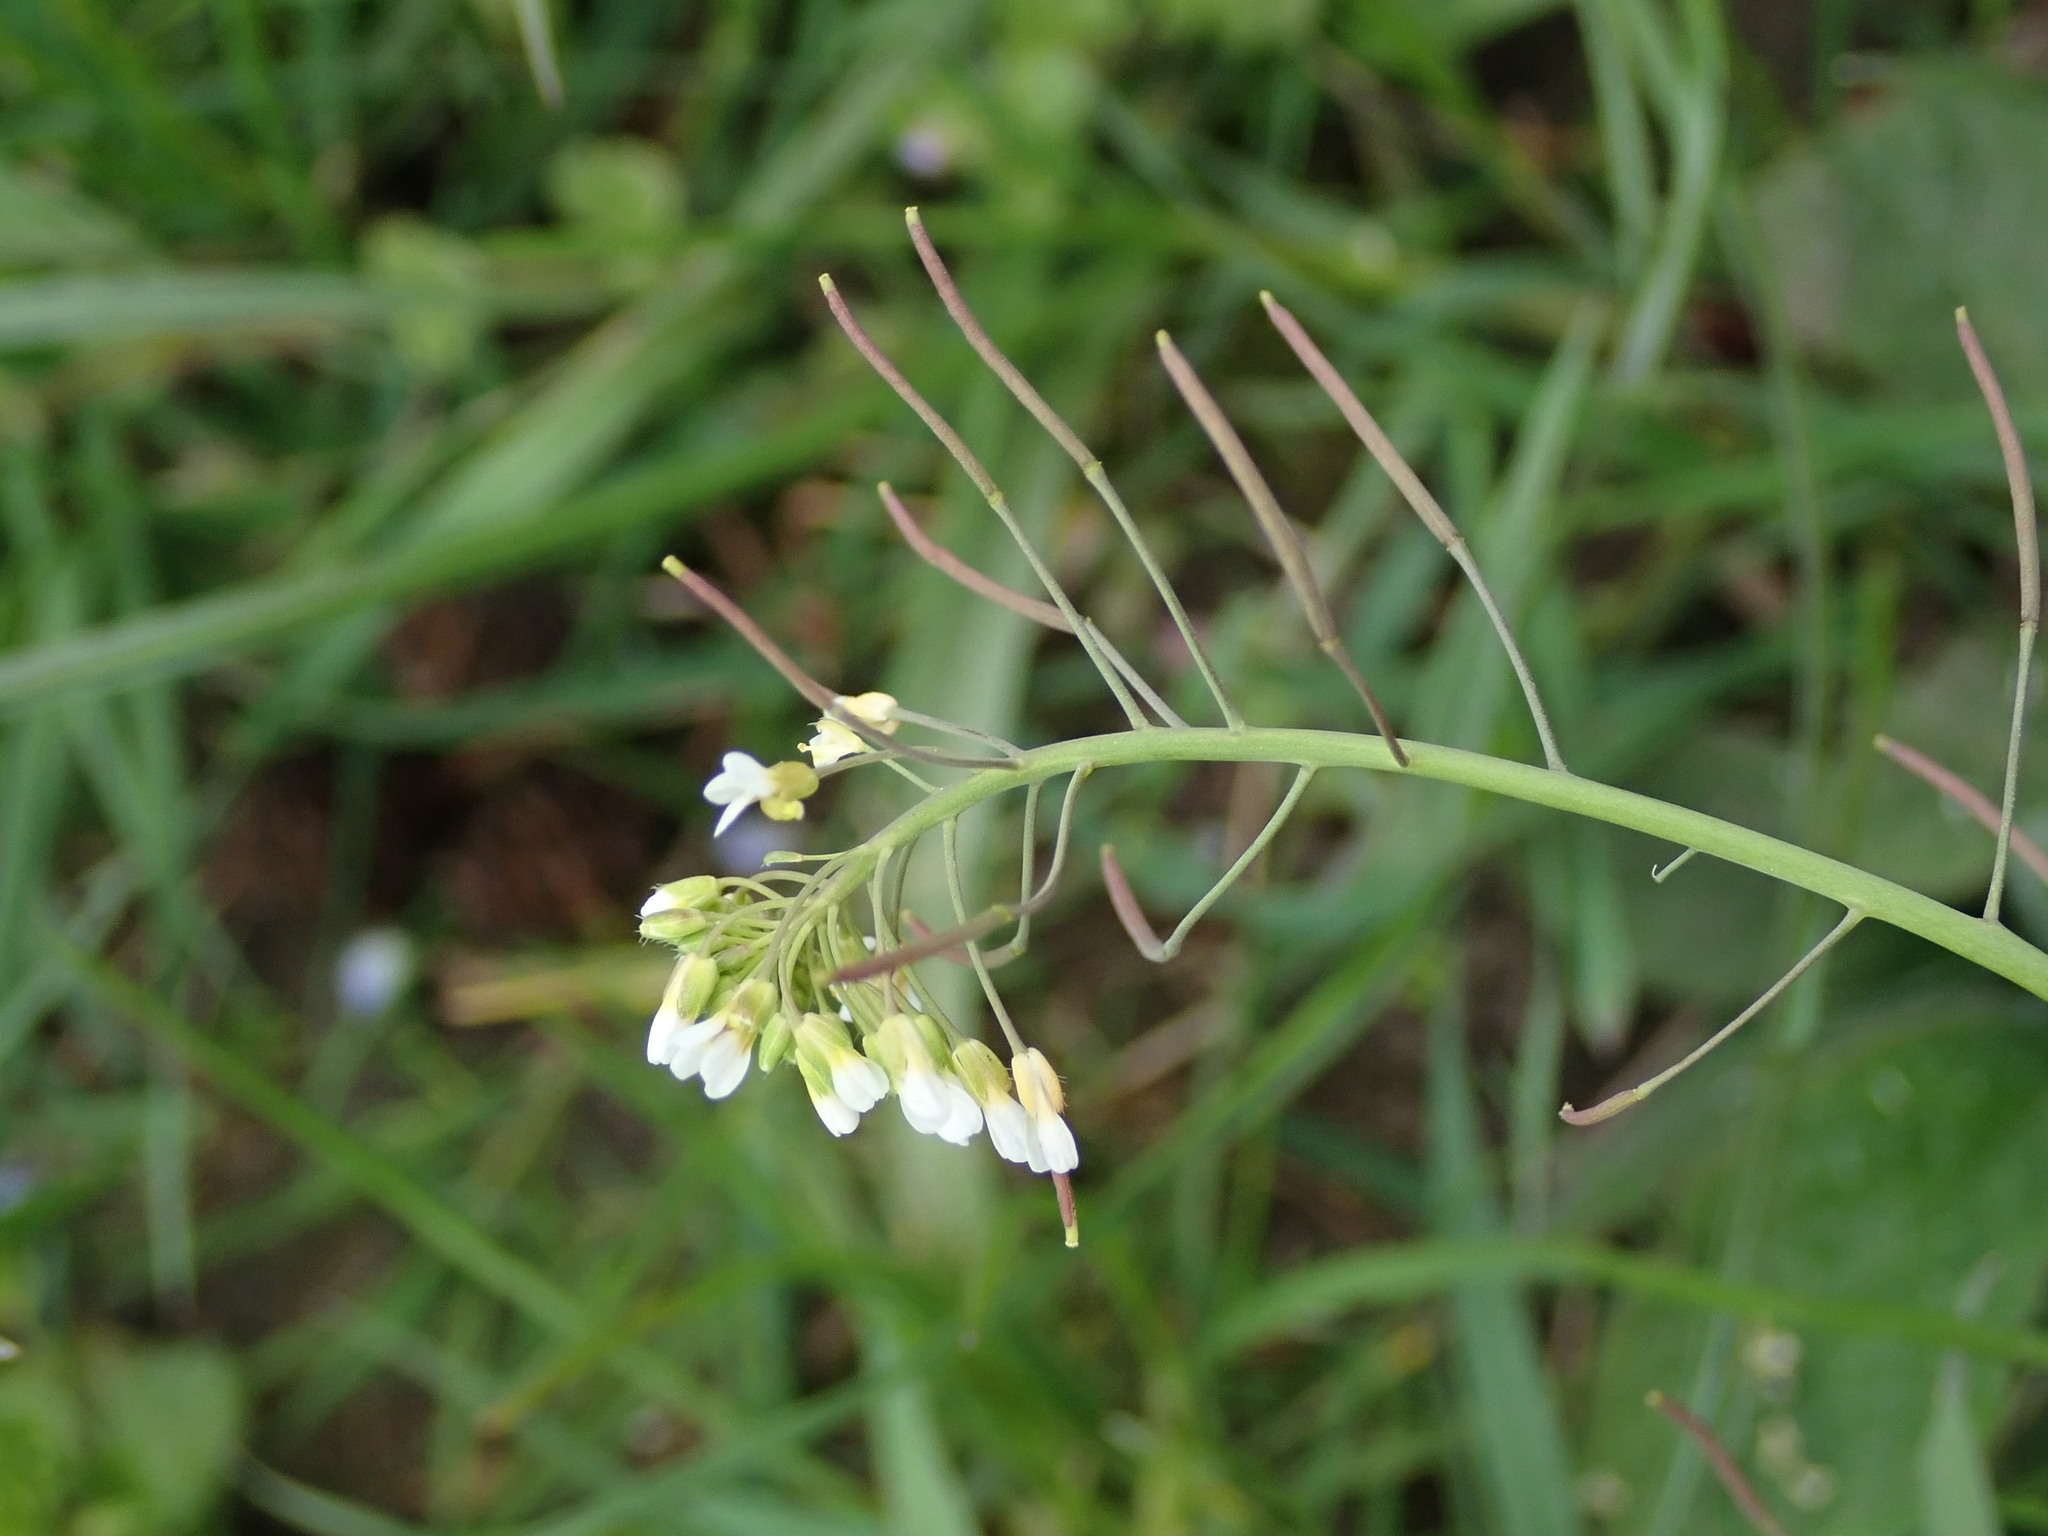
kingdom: Plantae
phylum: Tracheophyta
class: Magnoliopsida
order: Brassicales
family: Brassicaceae
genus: Arabidopsis
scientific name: Arabidopsis thaliana
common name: Thale cress
